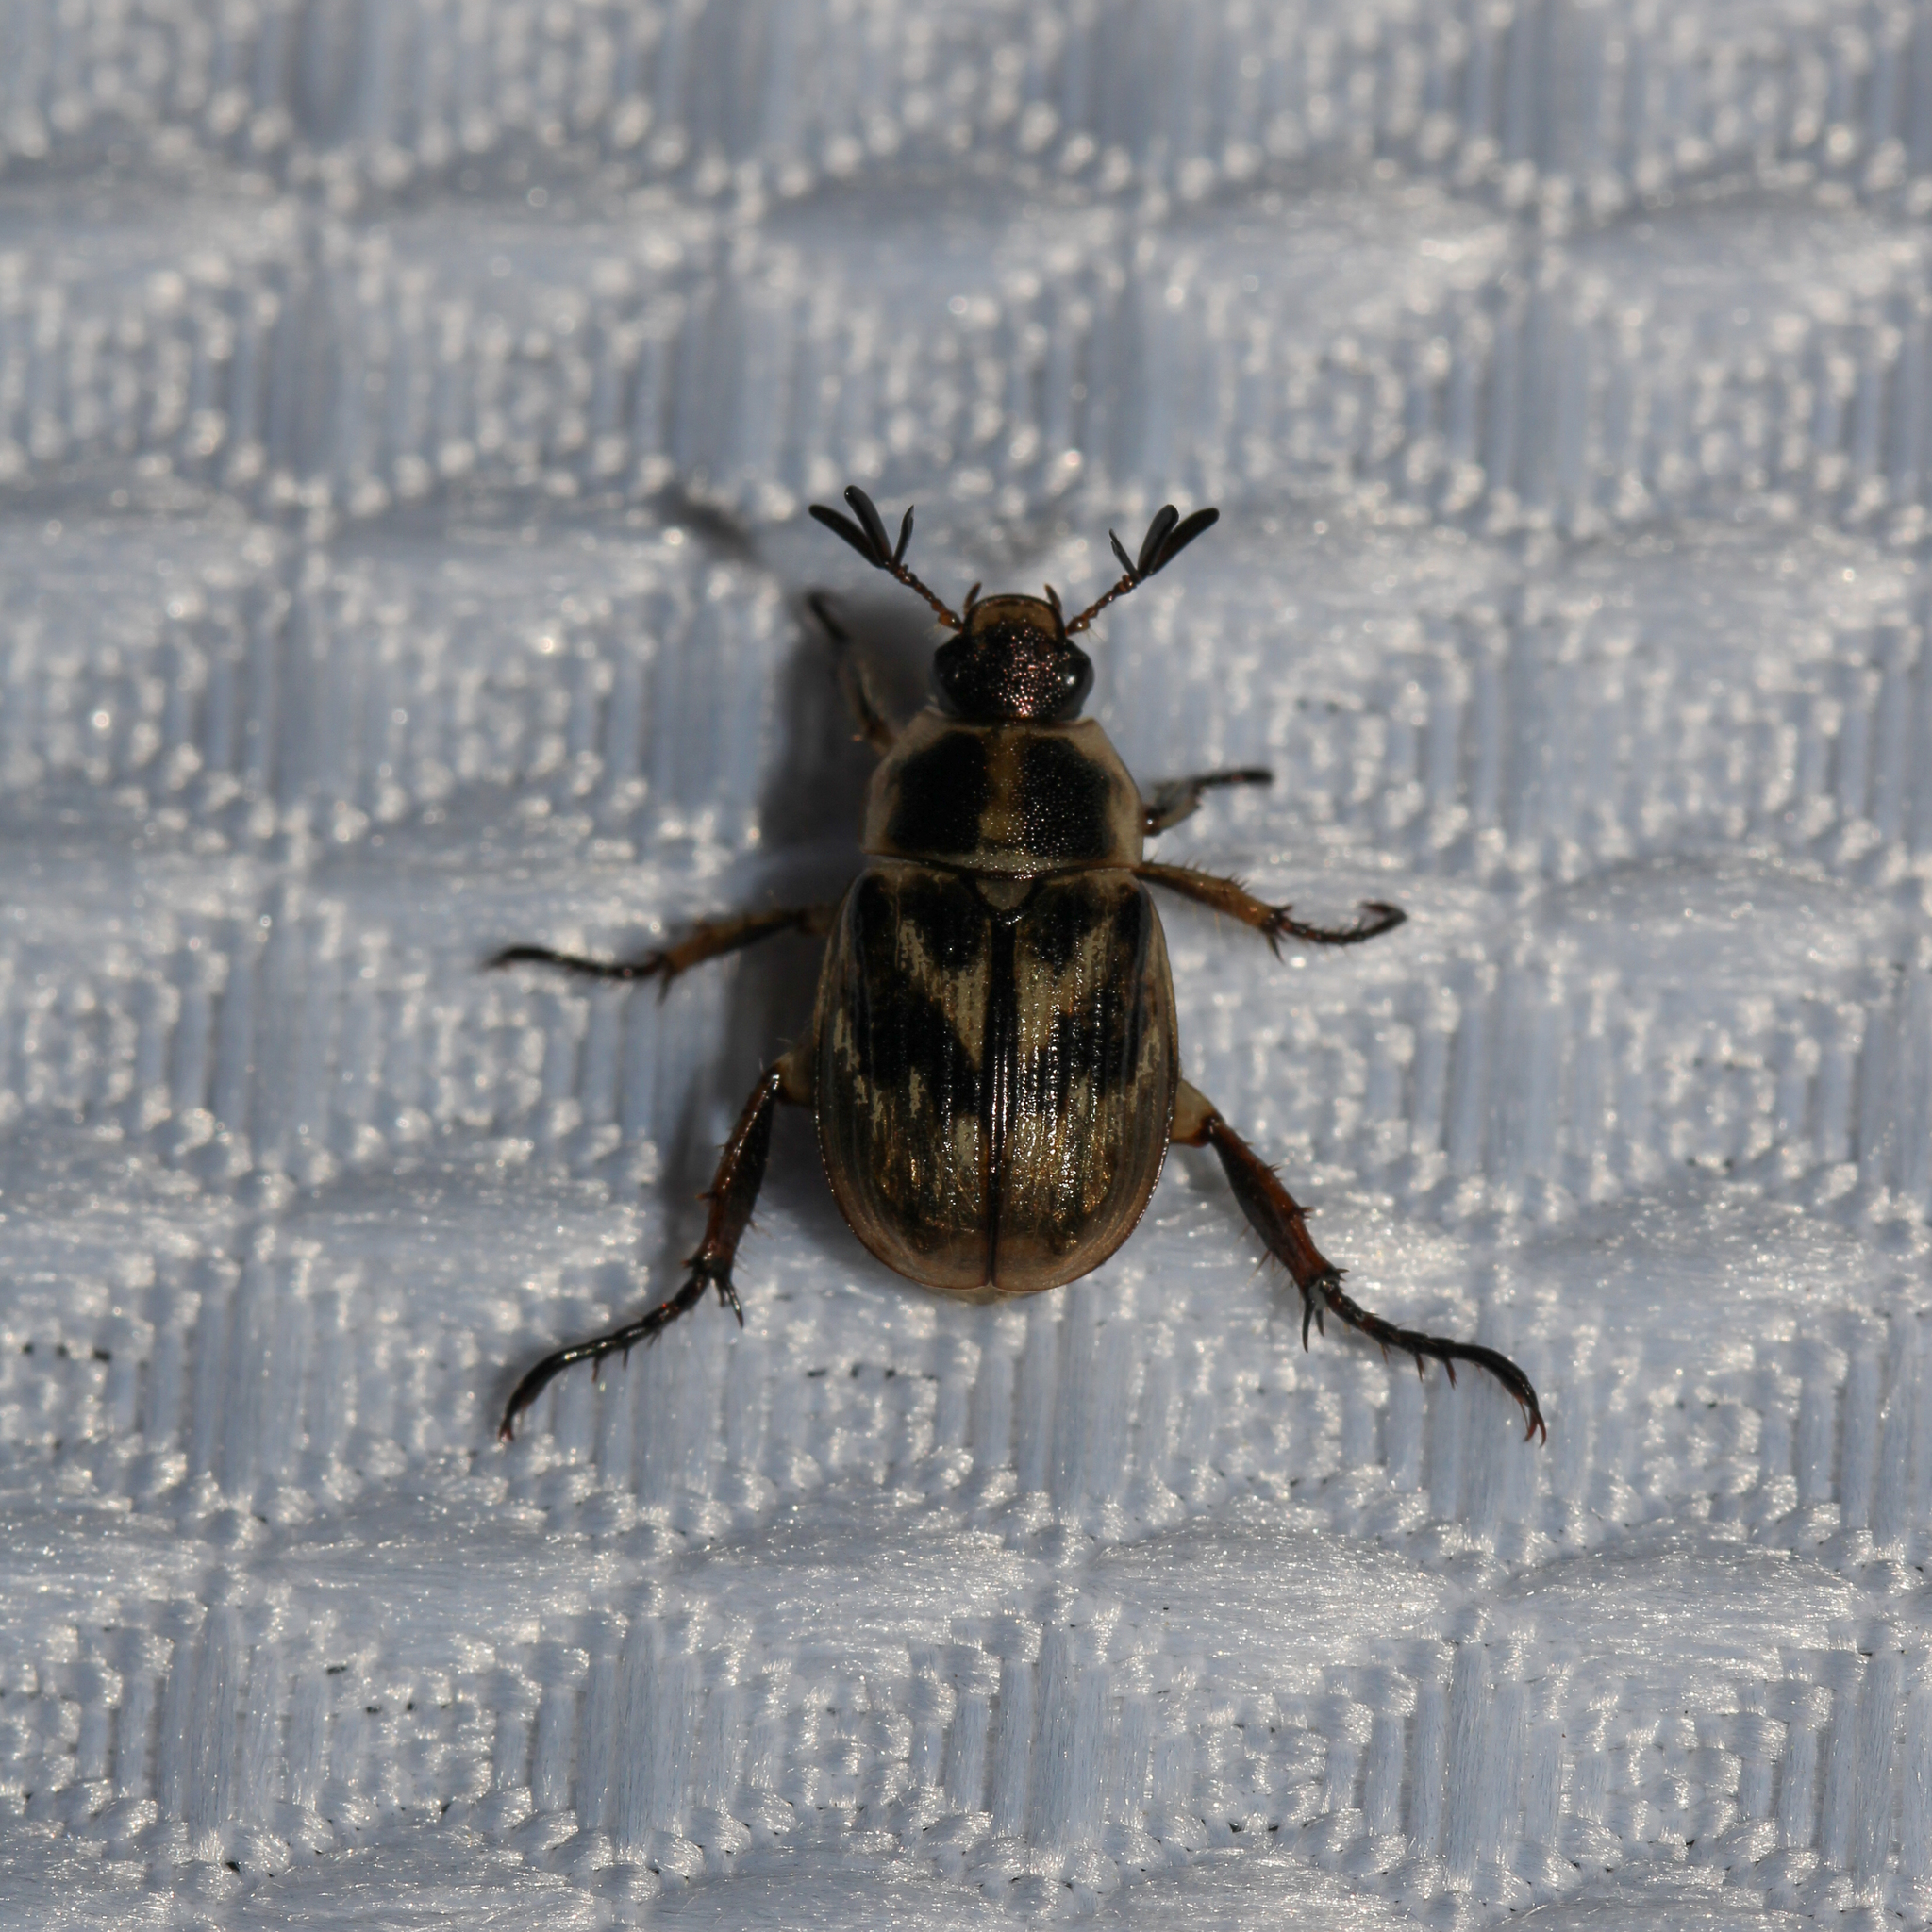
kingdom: Animalia
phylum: Arthropoda
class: Insecta
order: Coleoptera
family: Scarabaeidae
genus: Exomala
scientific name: Exomala orientalis
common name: Oriental beetle
